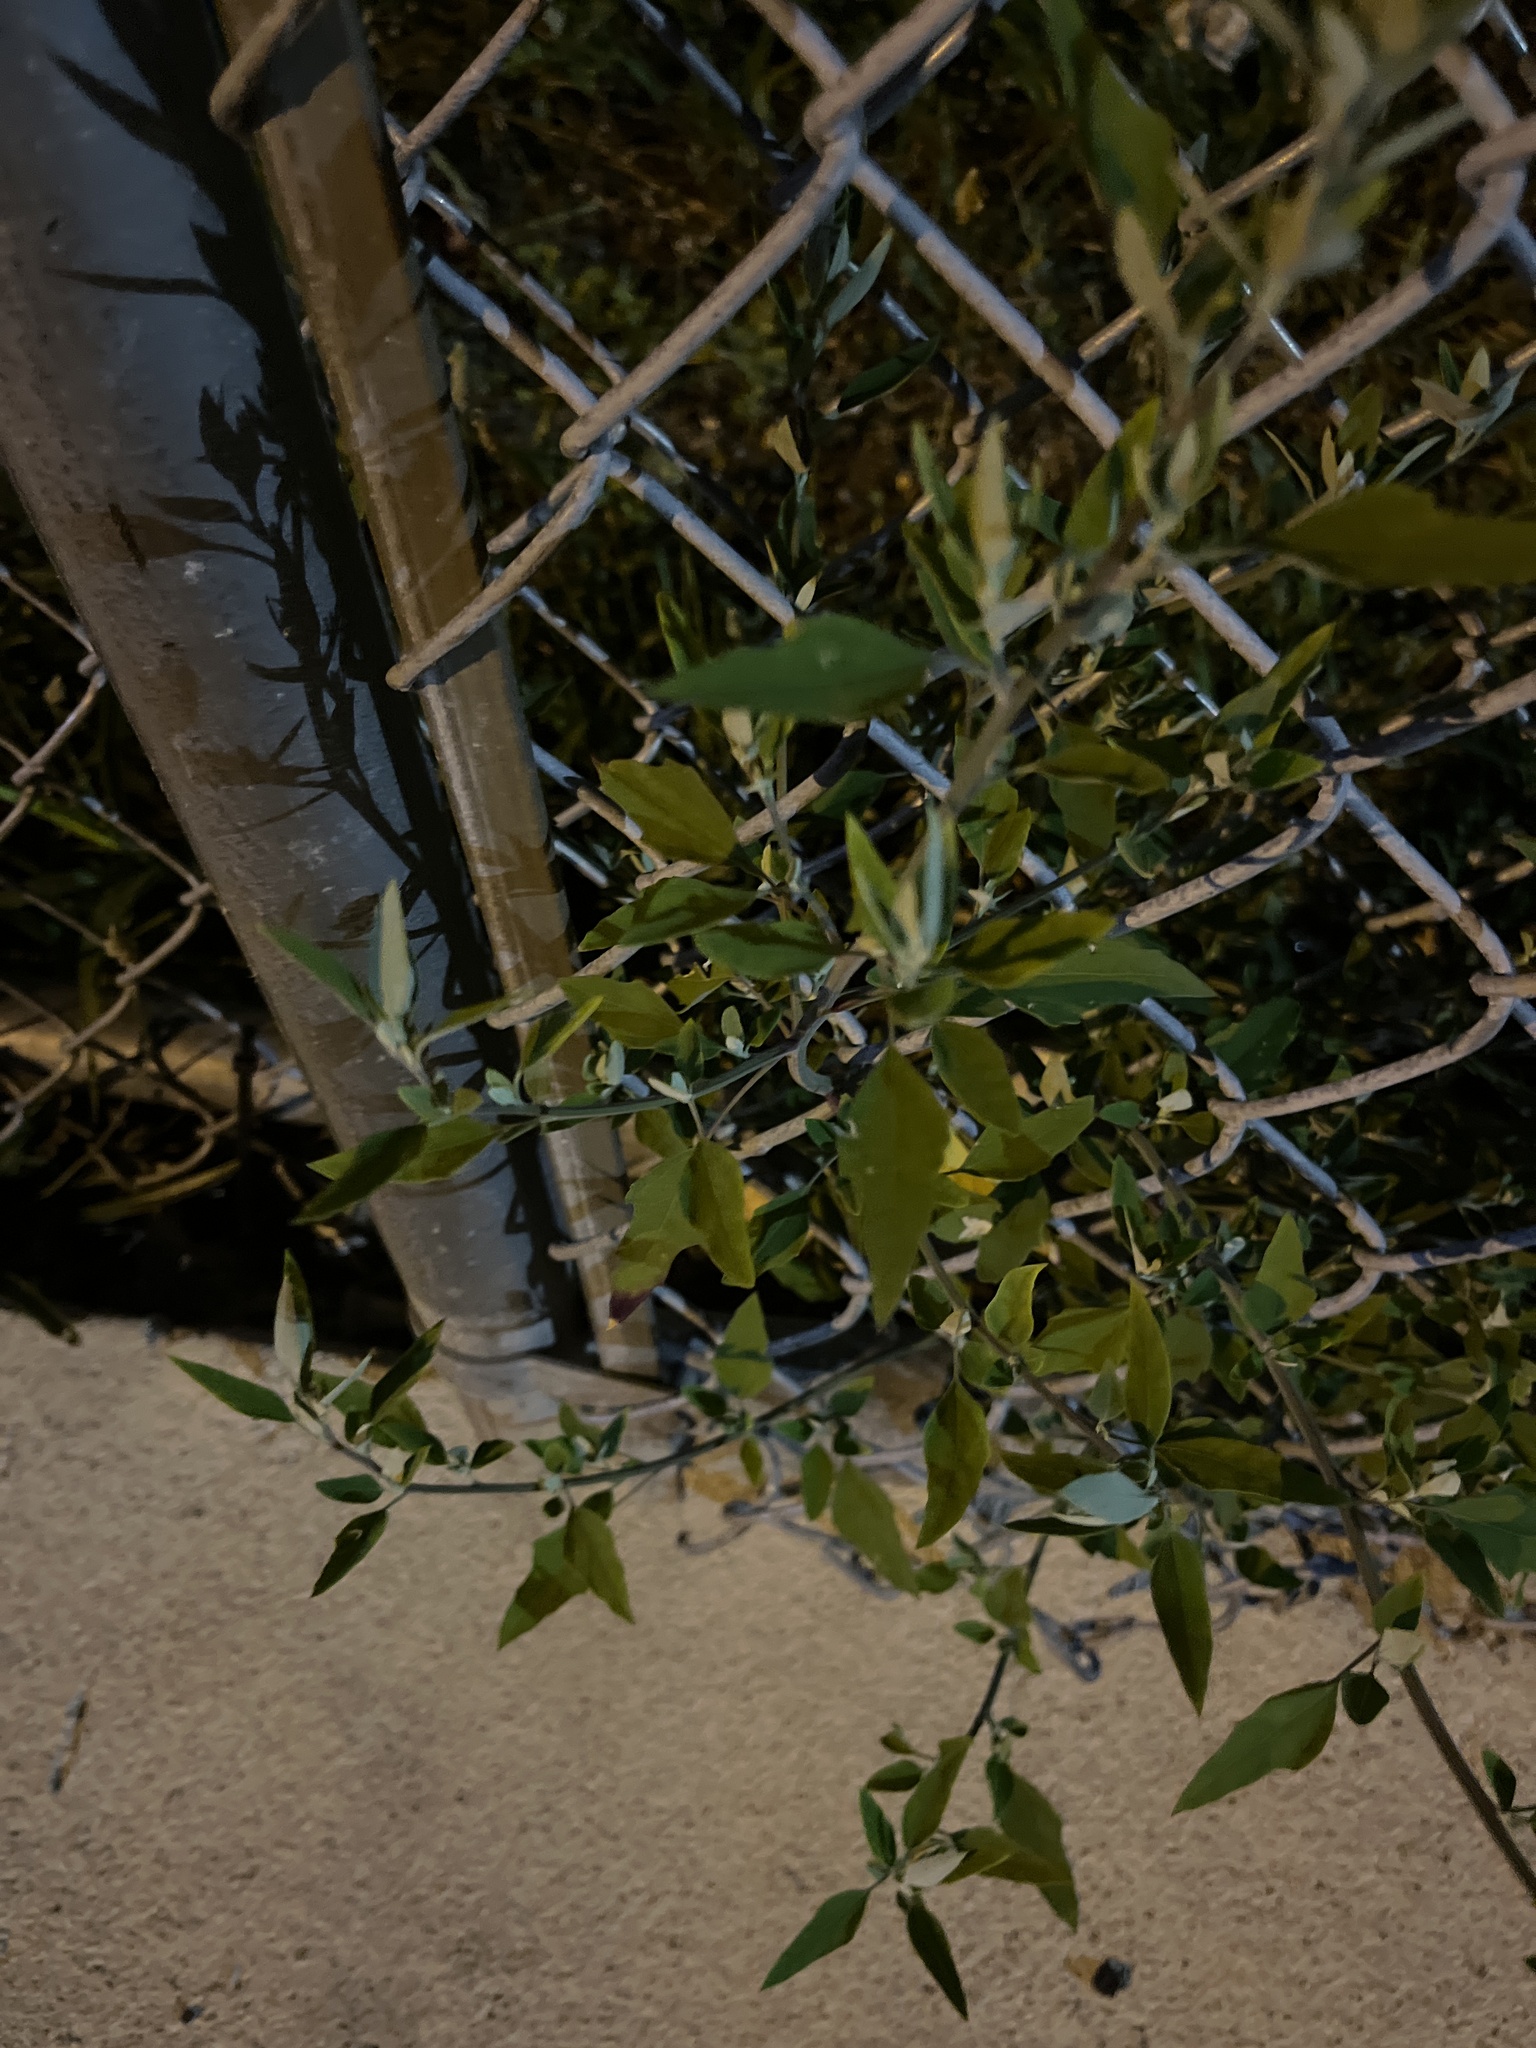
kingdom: Plantae
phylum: Tracheophyta
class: Magnoliopsida
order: Caryophyllales
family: Amaranthaceae
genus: Chenopodium
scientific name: Chenopodium album
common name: Fat-hen
